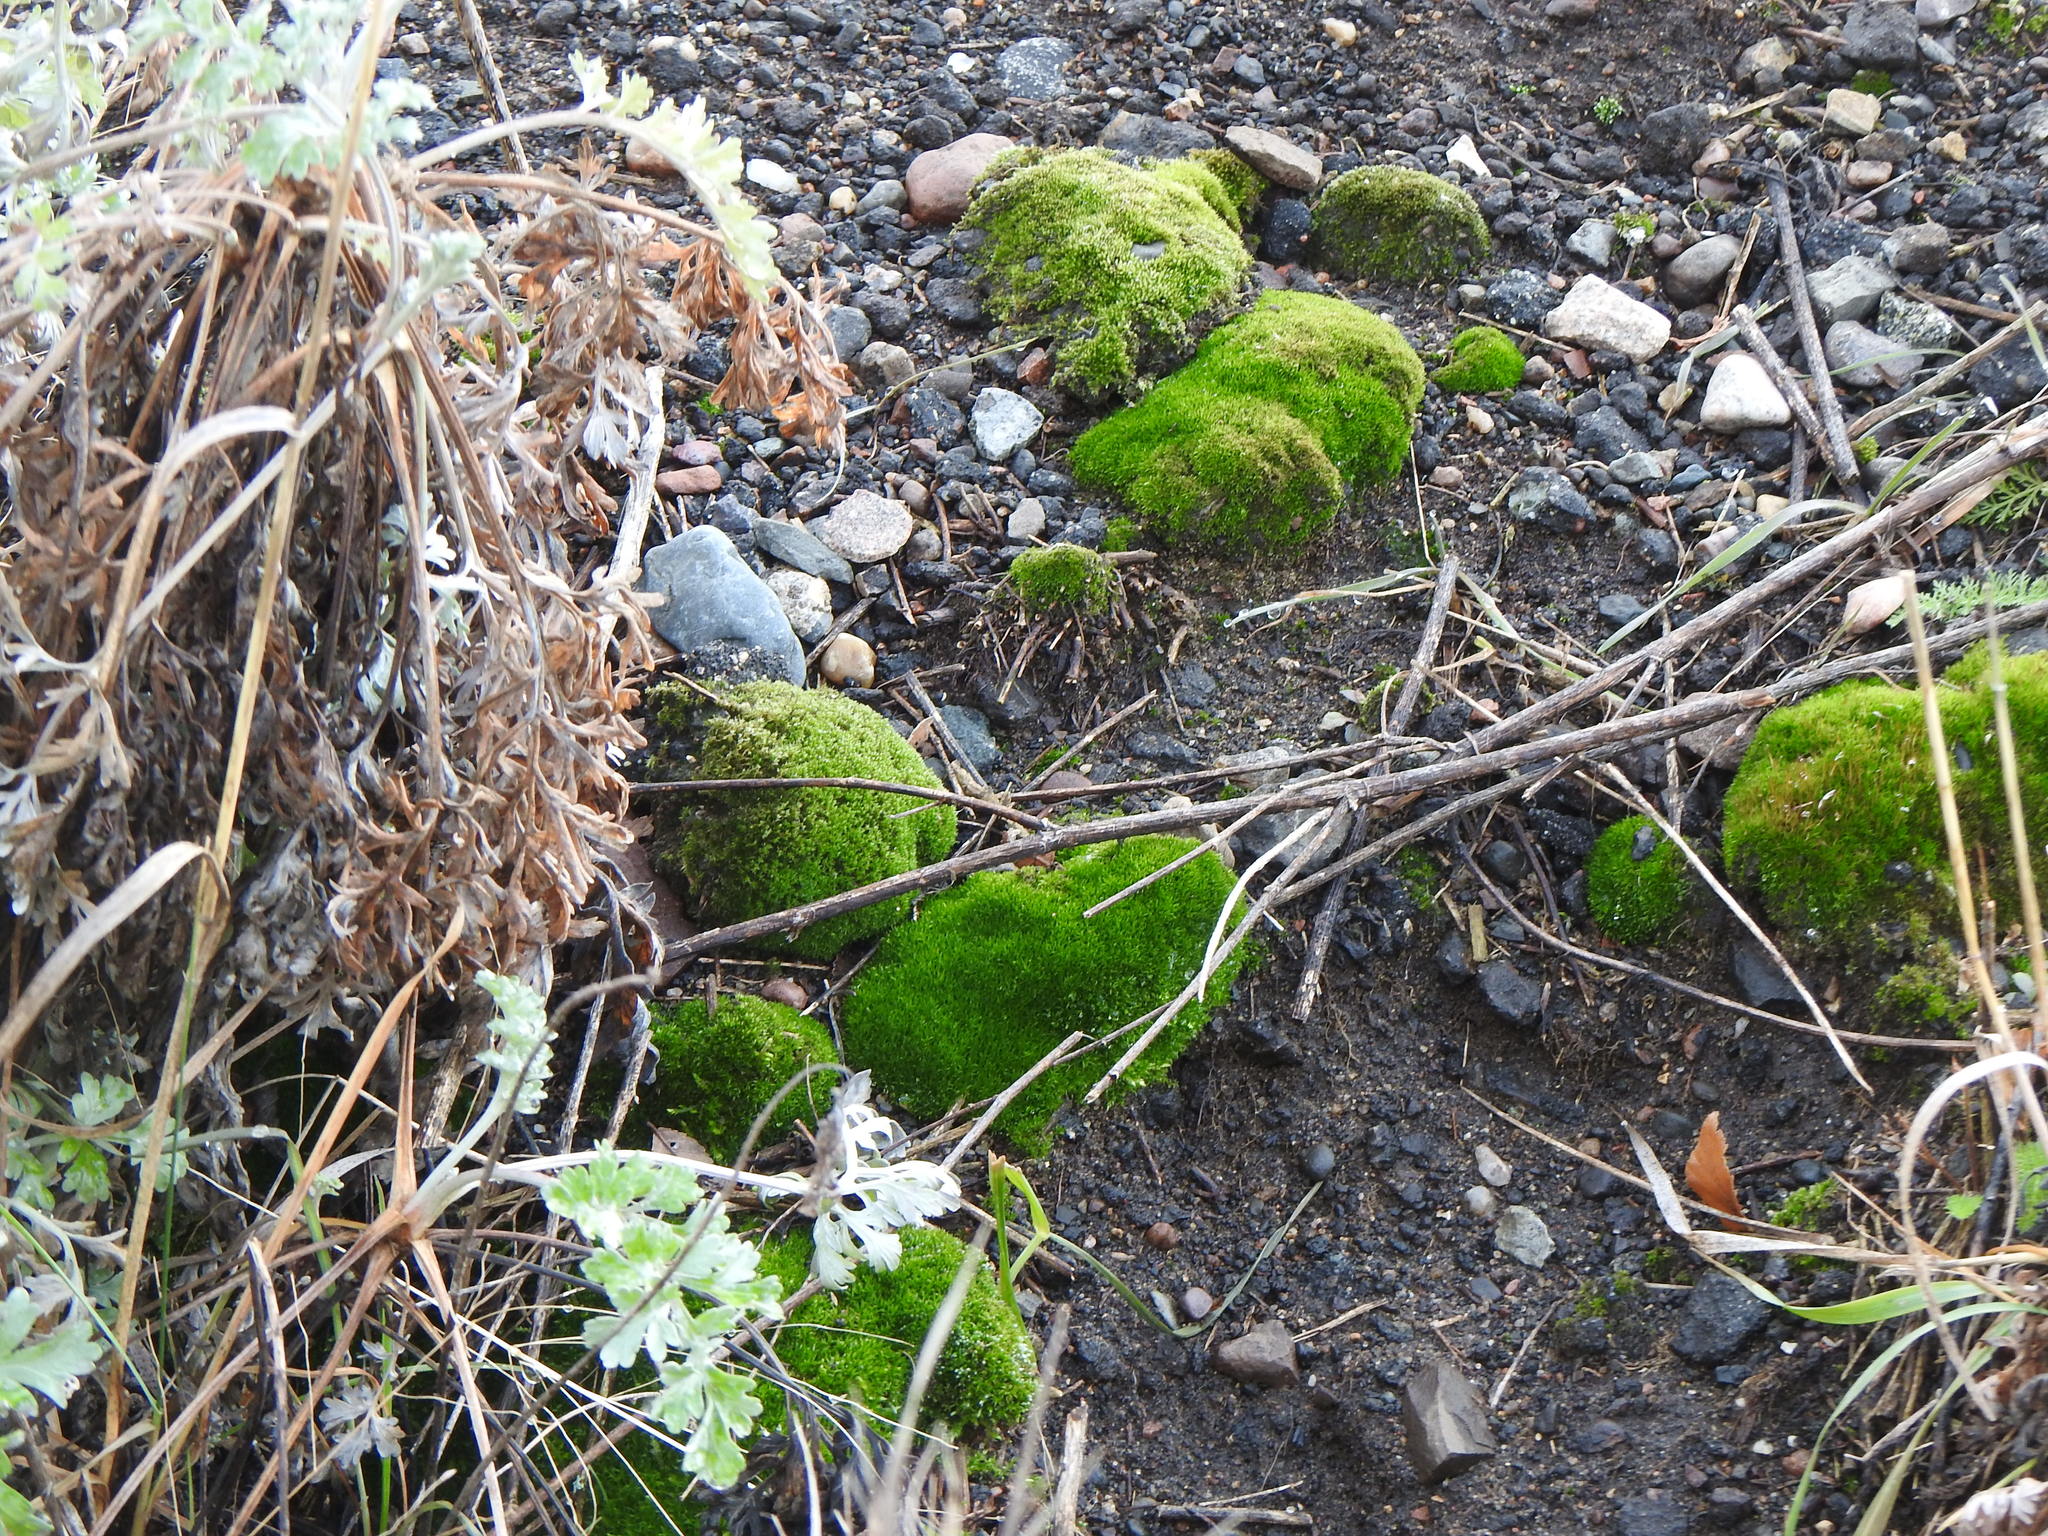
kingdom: Plantae
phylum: Bryophyta
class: Bryopsida
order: Dicranales
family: Ditrichaceae
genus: Ceratodon
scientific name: Ceratodon purpureus
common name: Redshank
